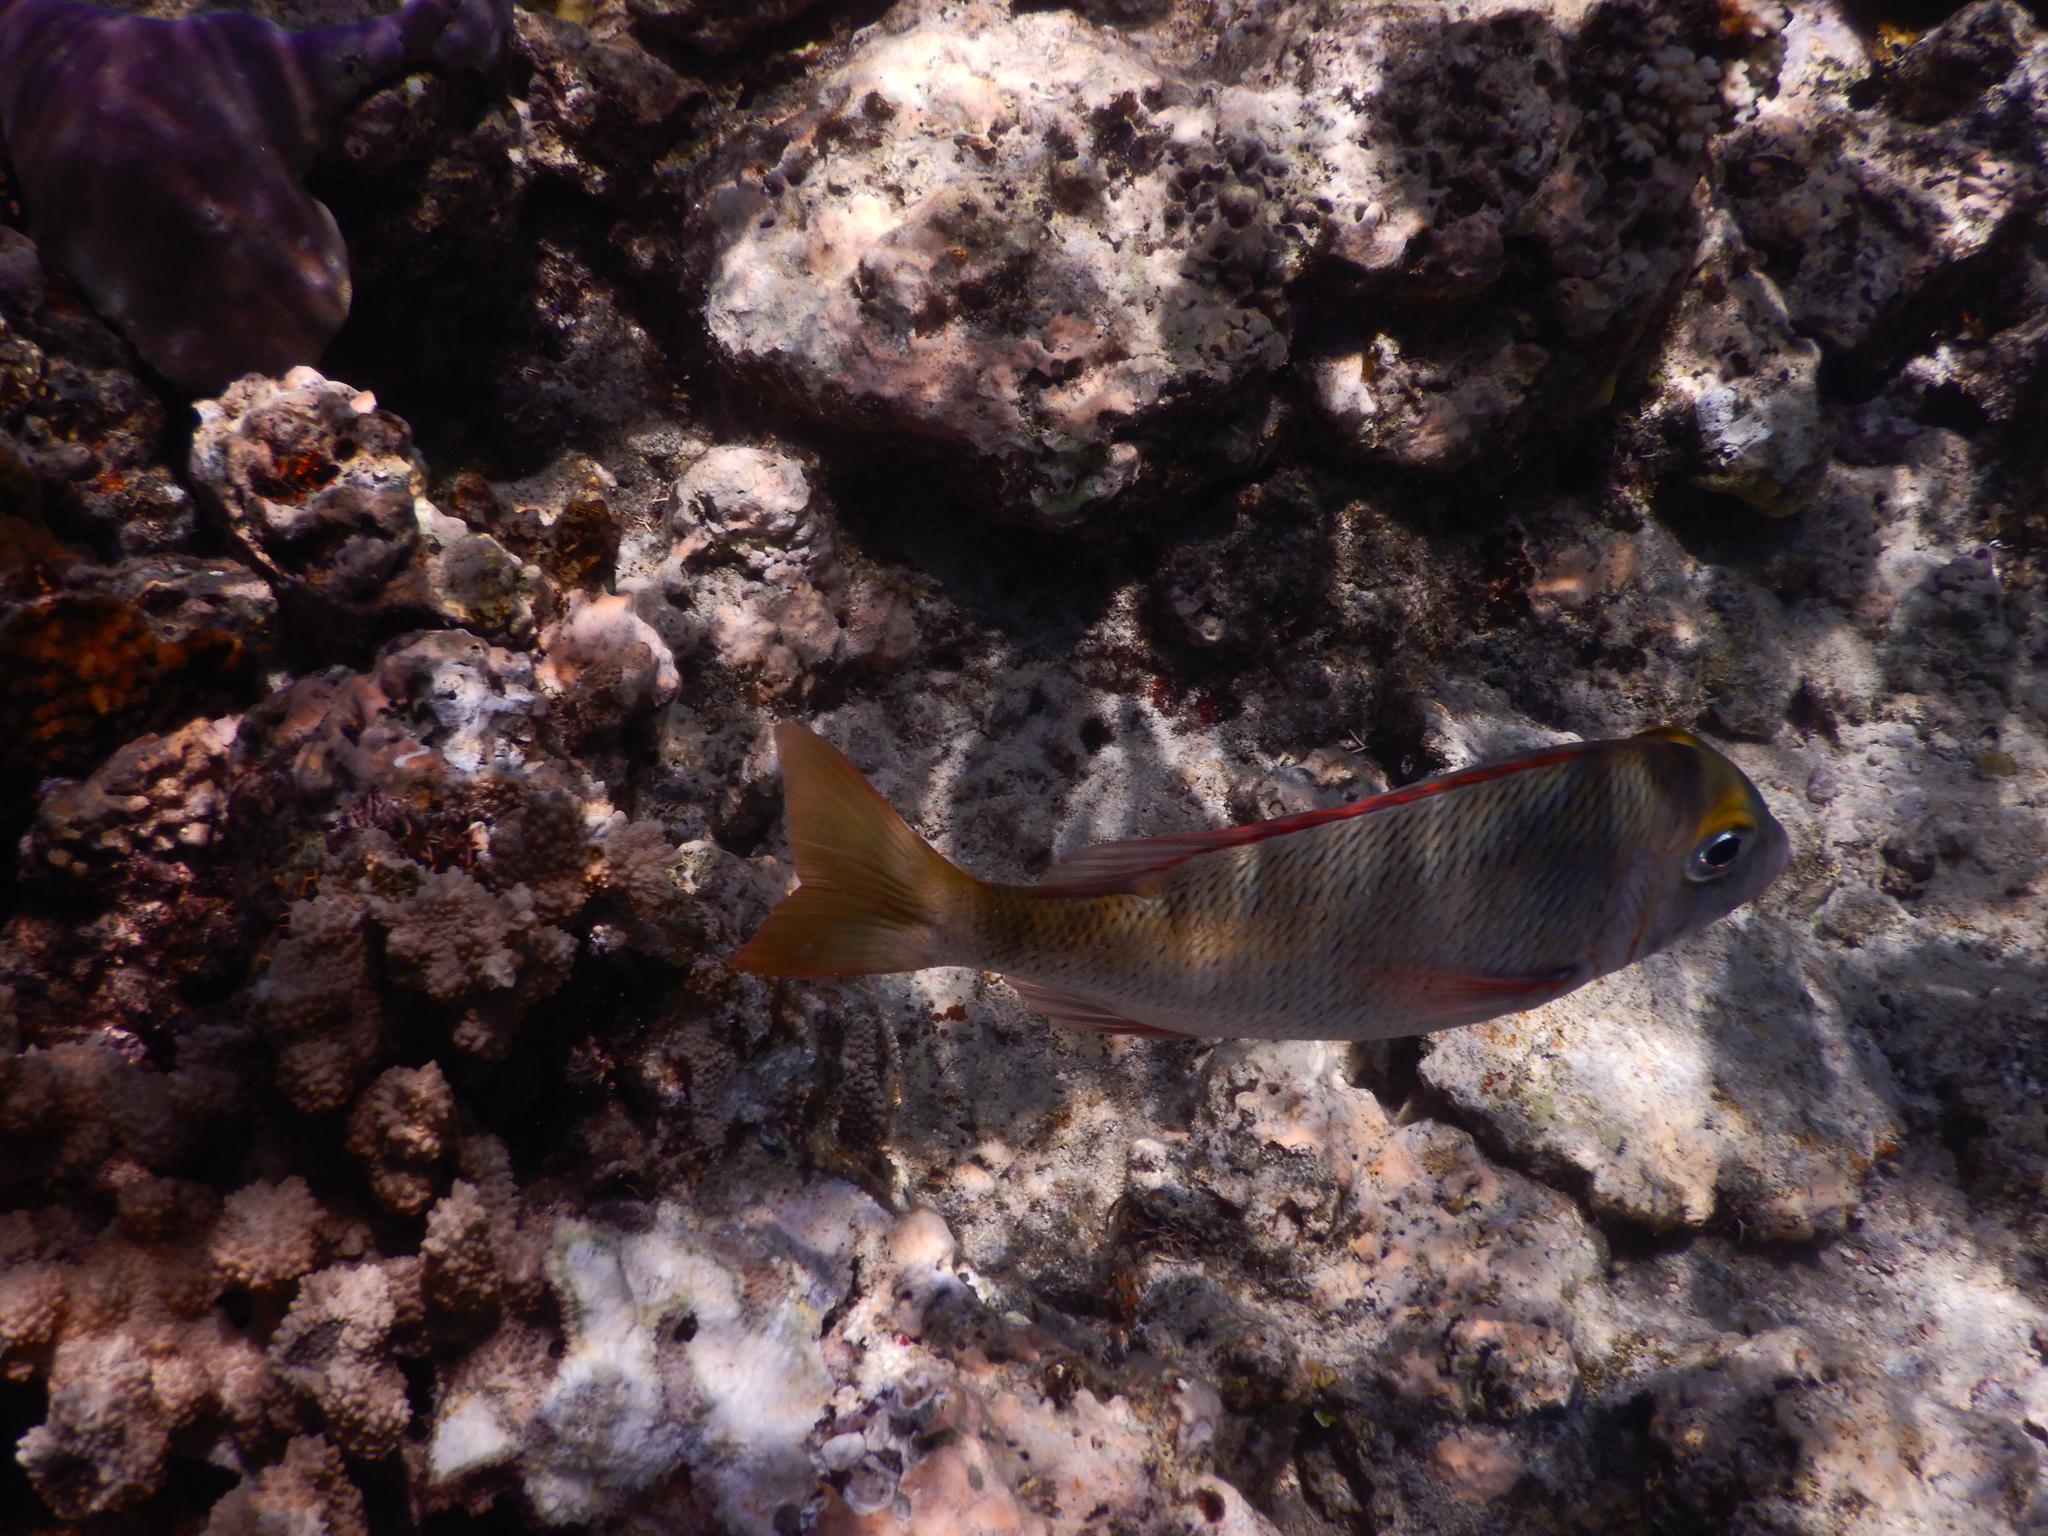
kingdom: Animalia
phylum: Chordata
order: Perciformes
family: Lethrinidae
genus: Lethrinus
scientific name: Lethrinus atkinsoni
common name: Pacific yellowtail emperor
